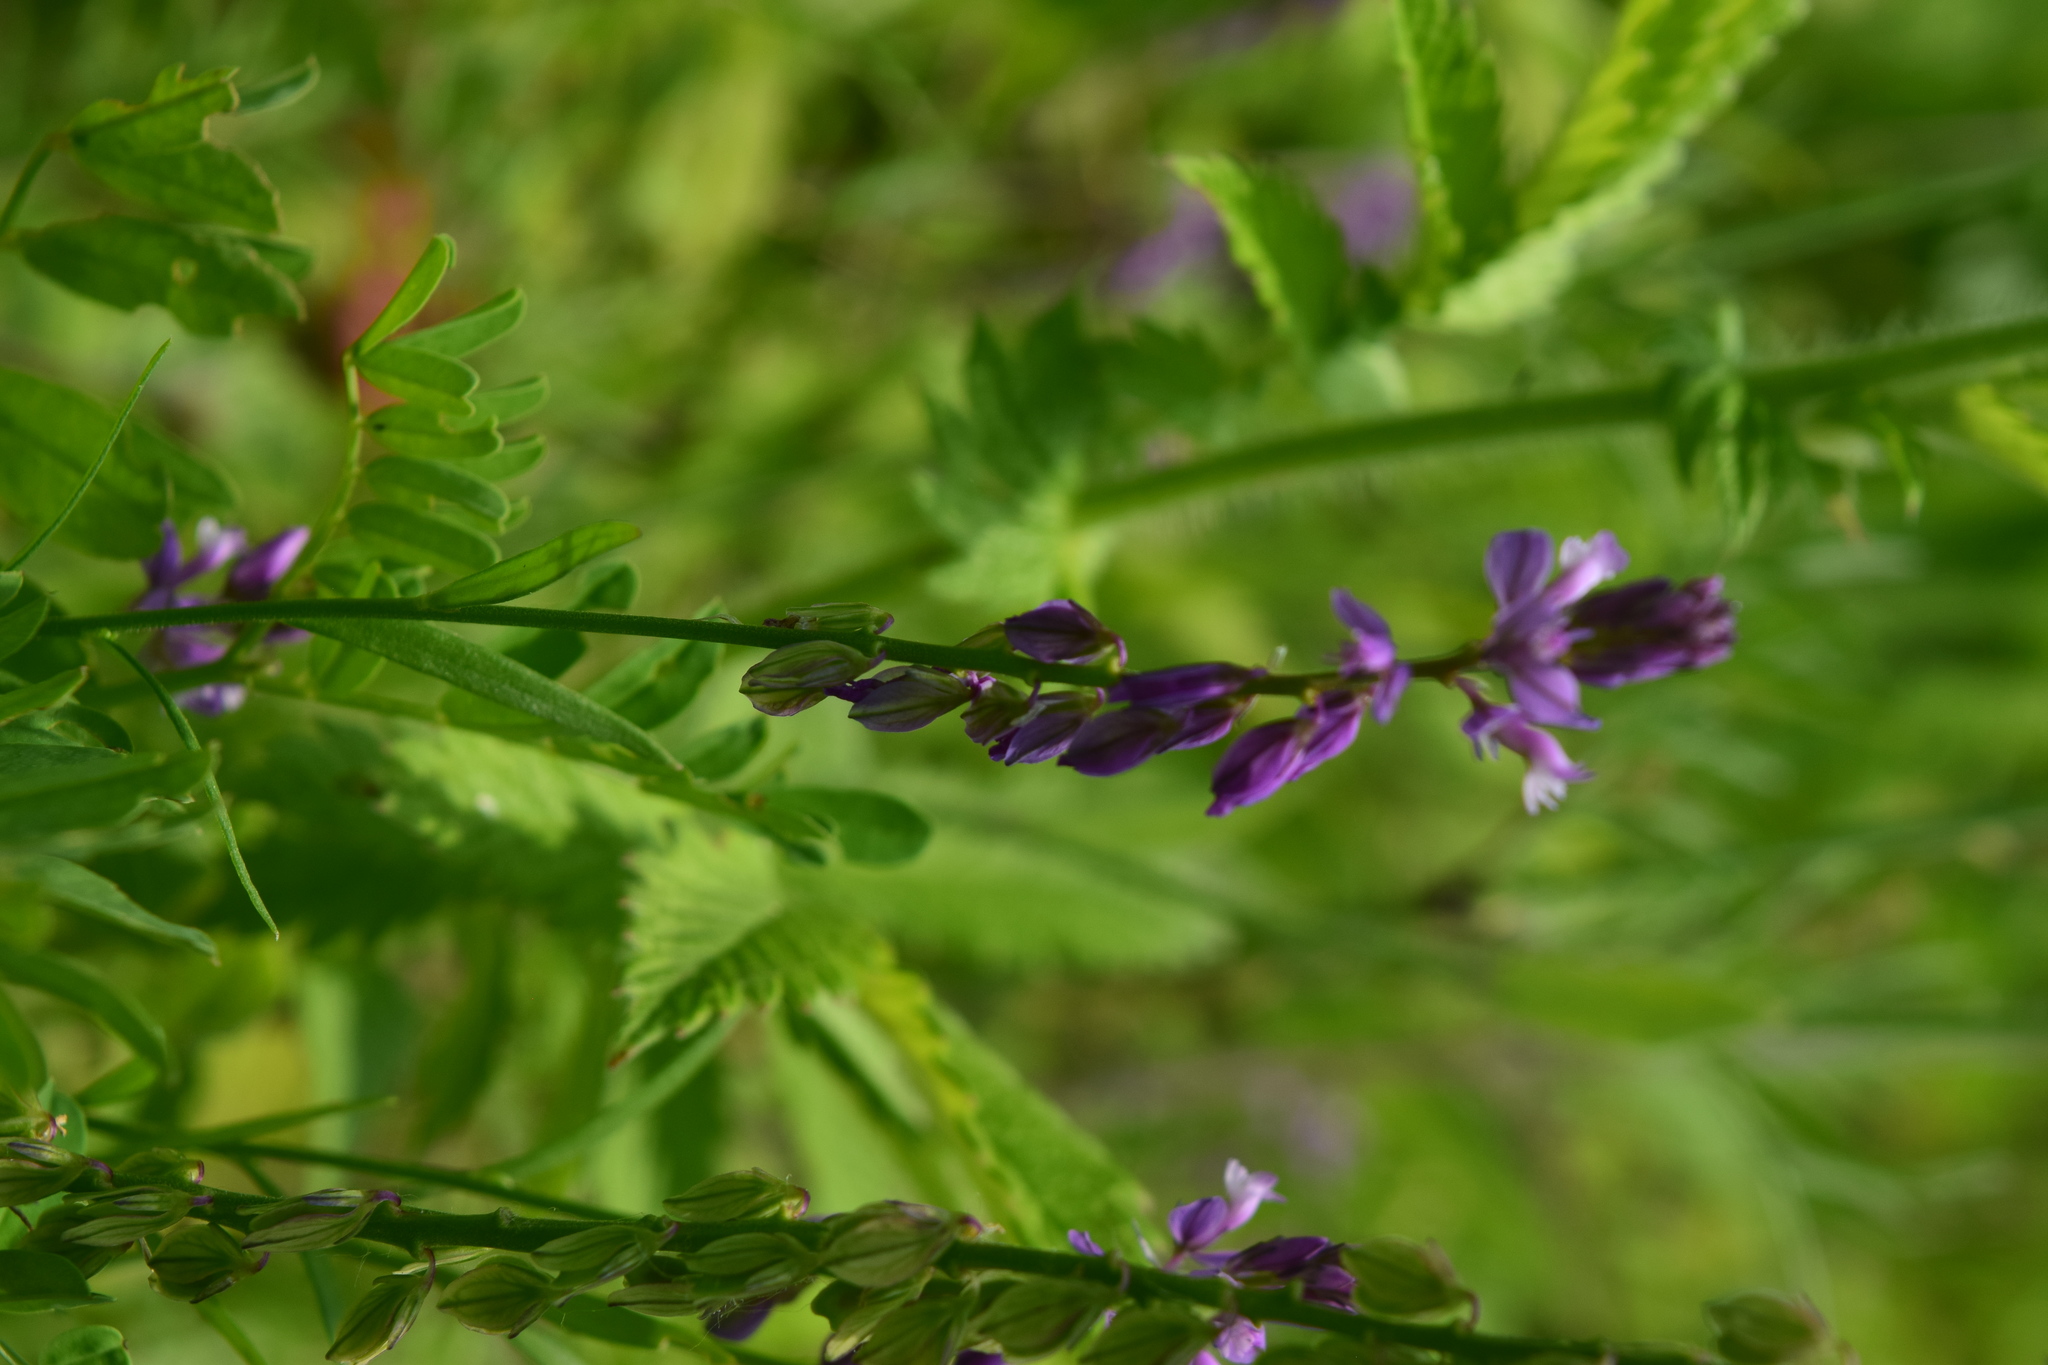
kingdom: Plantae
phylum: Tracheophyta
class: Magnoliopsida
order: Fabales
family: Polygalaceae
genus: Polygala
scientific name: Polygala comosa
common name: Tufted milkwort
